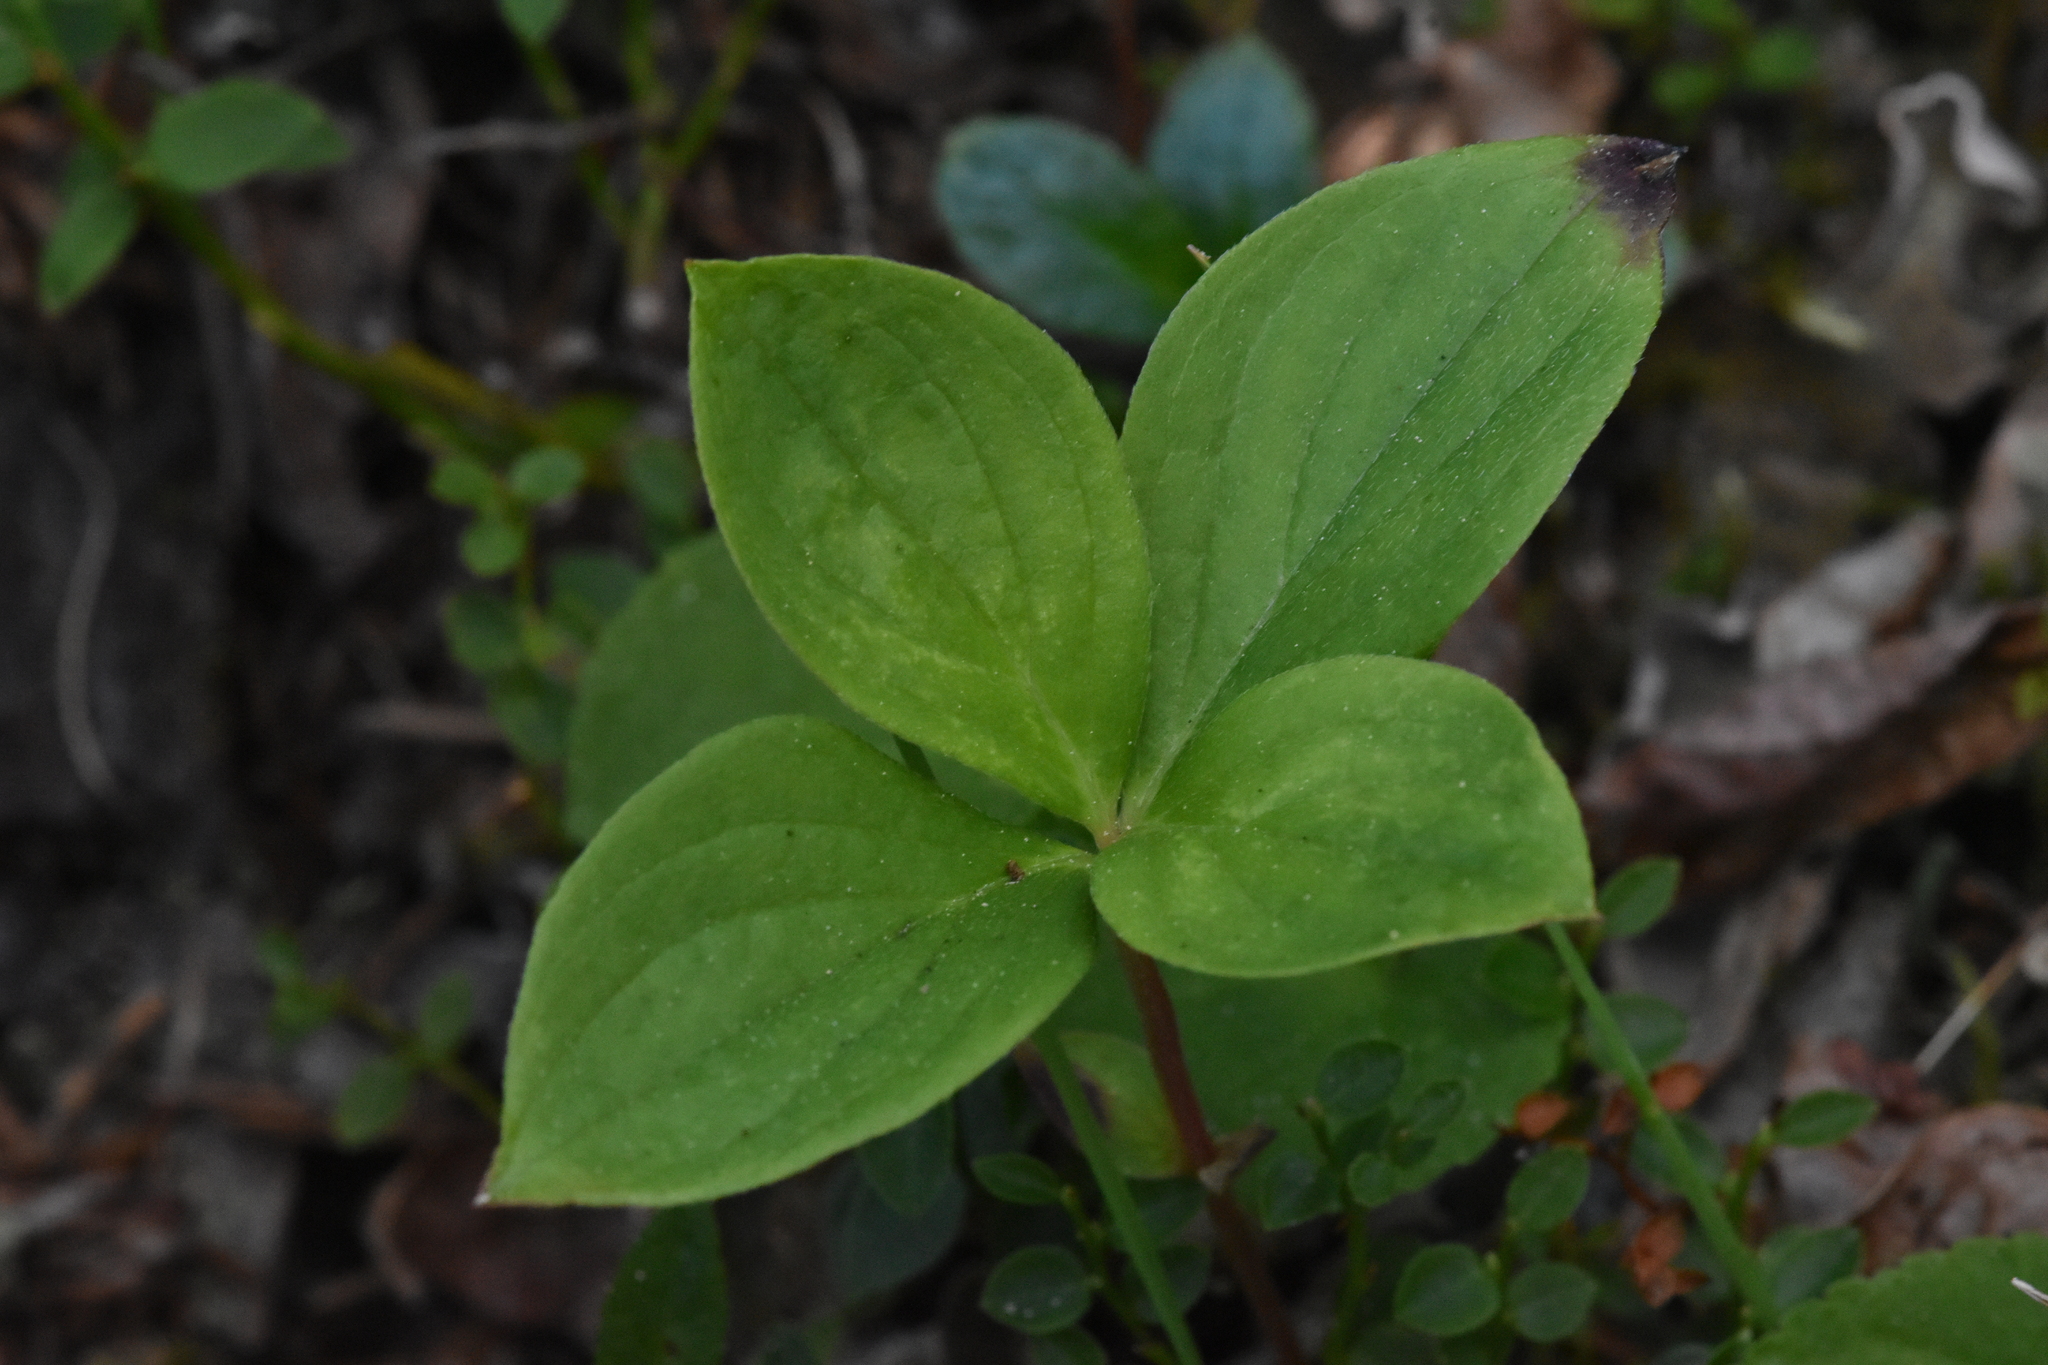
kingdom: Plantae
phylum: Tracheophyta
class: Magnoliopsida
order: Cornales
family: Cornaceae
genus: Cornus
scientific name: Cornus unalaschkensis
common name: Alaska bunchberry
